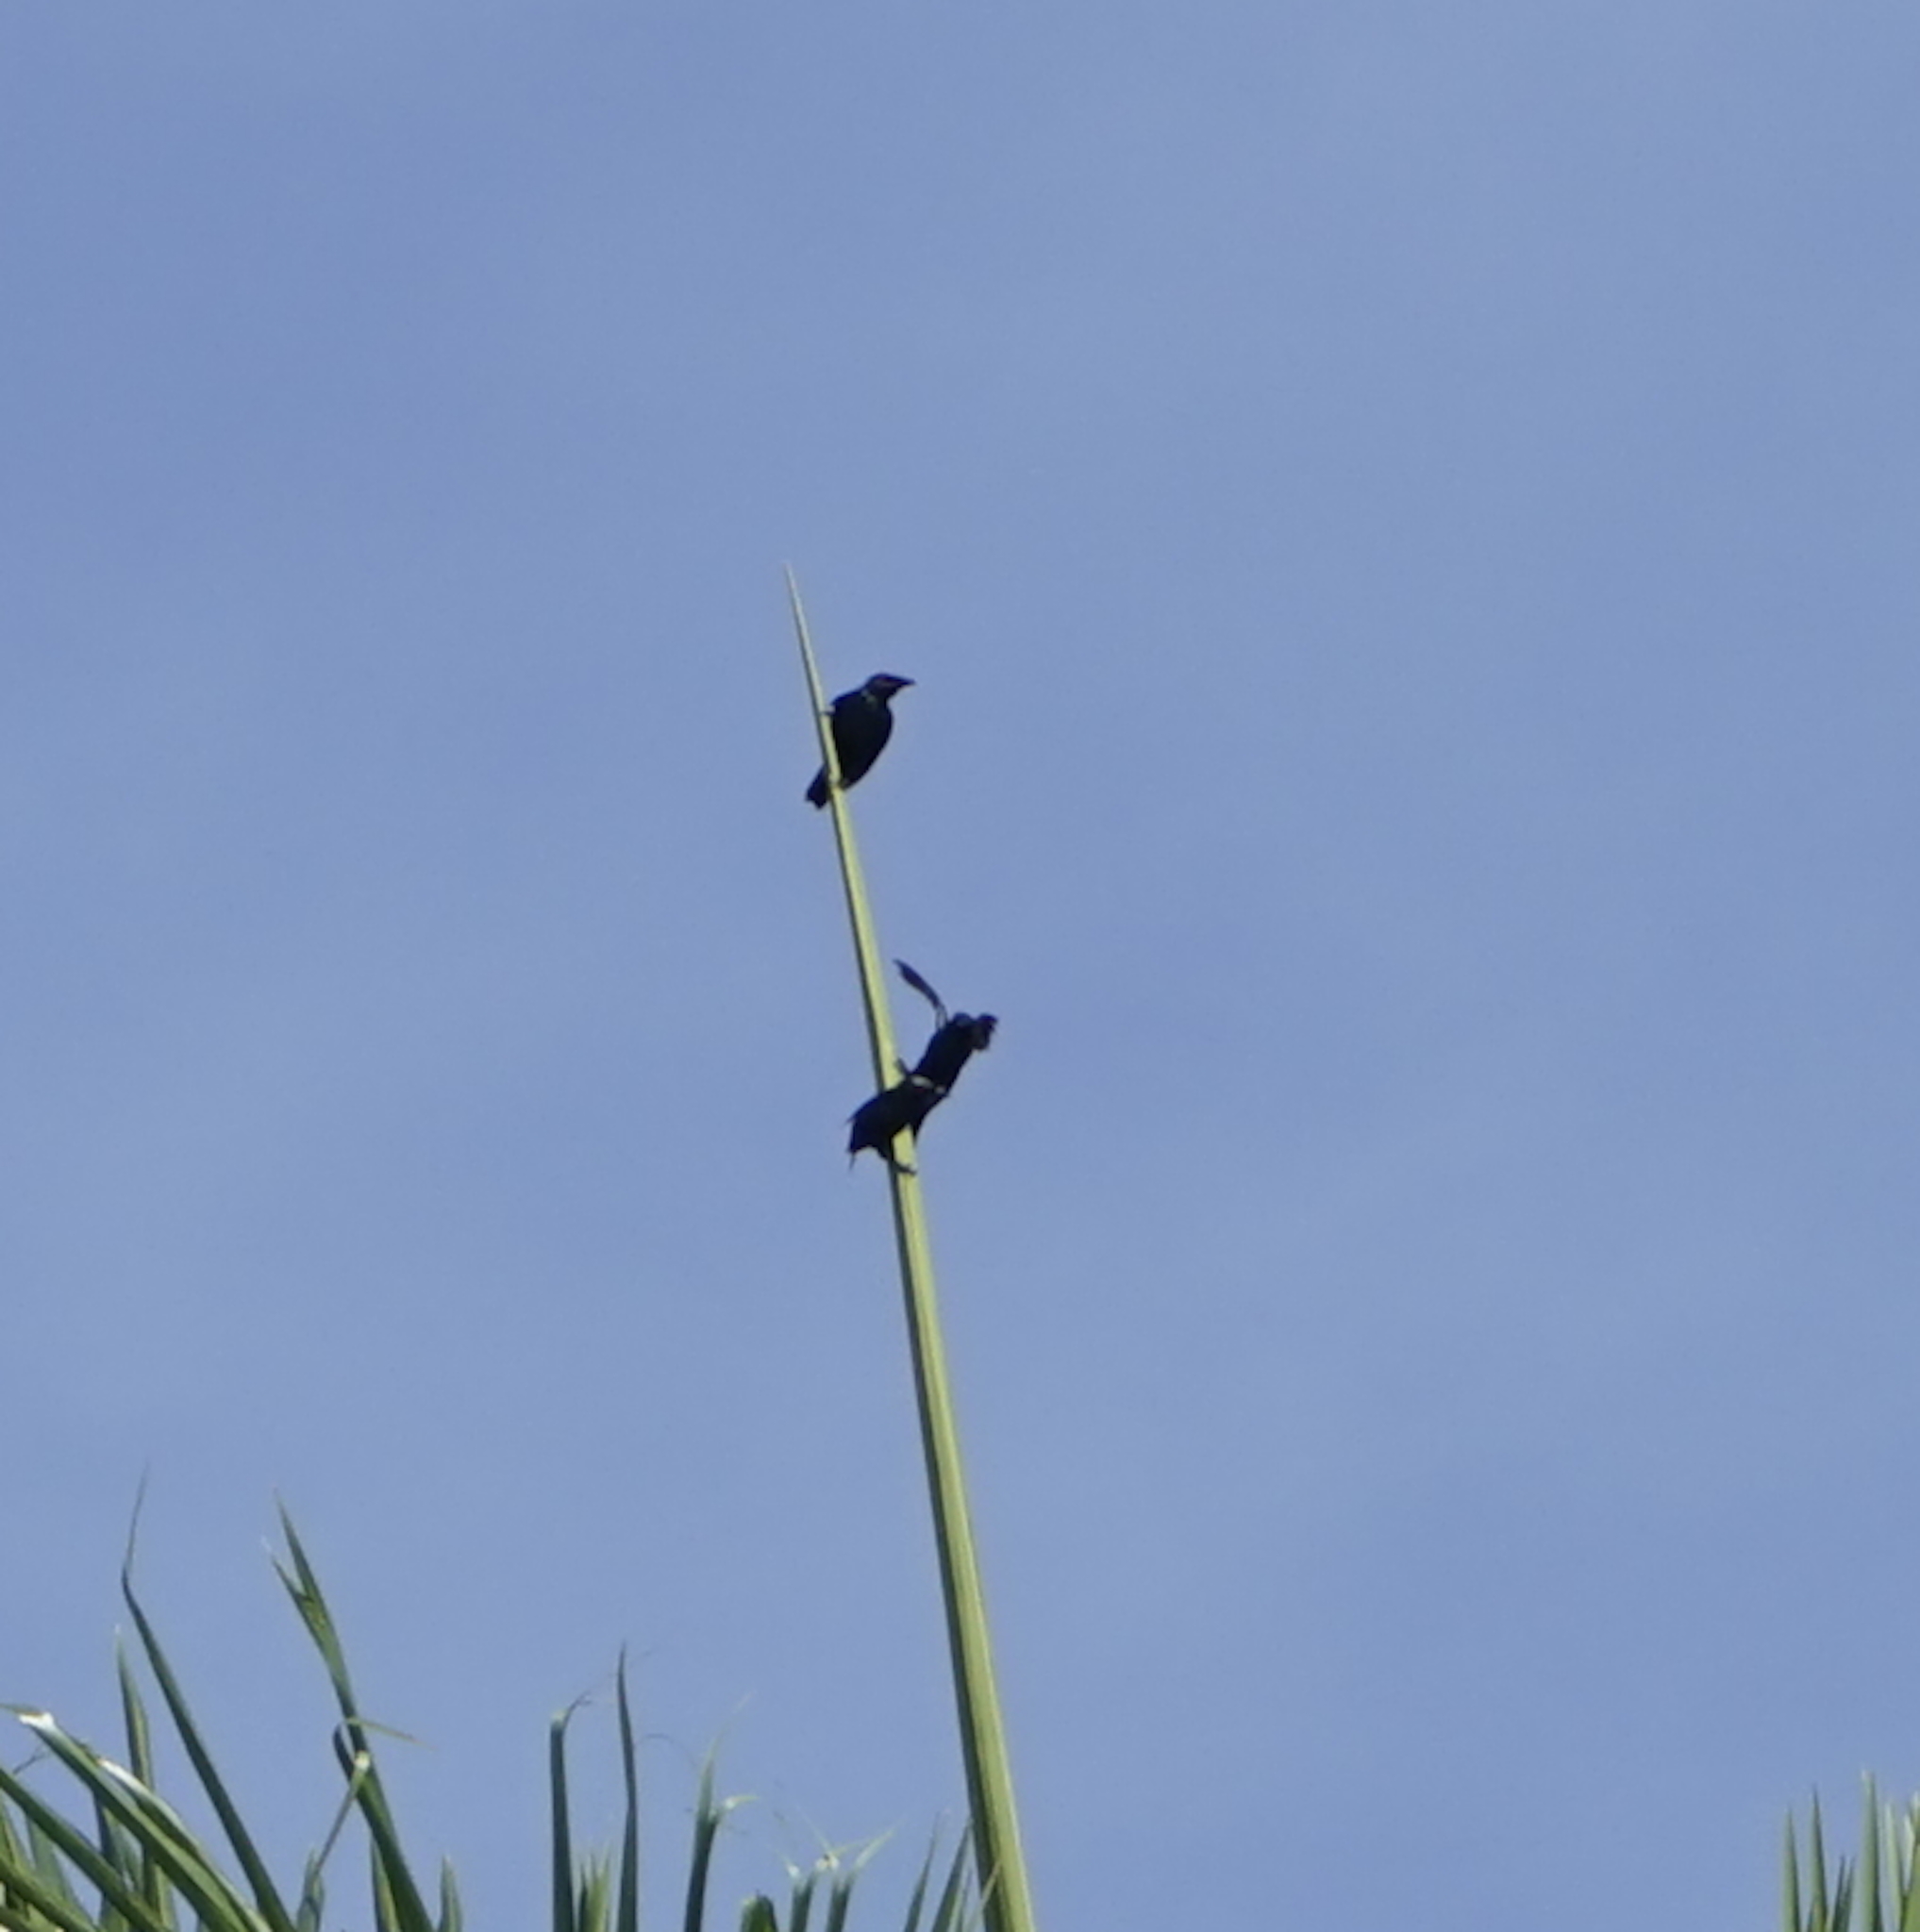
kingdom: Animalia
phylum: Chordata
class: Aves
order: Passeriformes
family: Sturnidae
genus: Aplonis
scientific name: Aplonis panayensis
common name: Asian glossy starling
